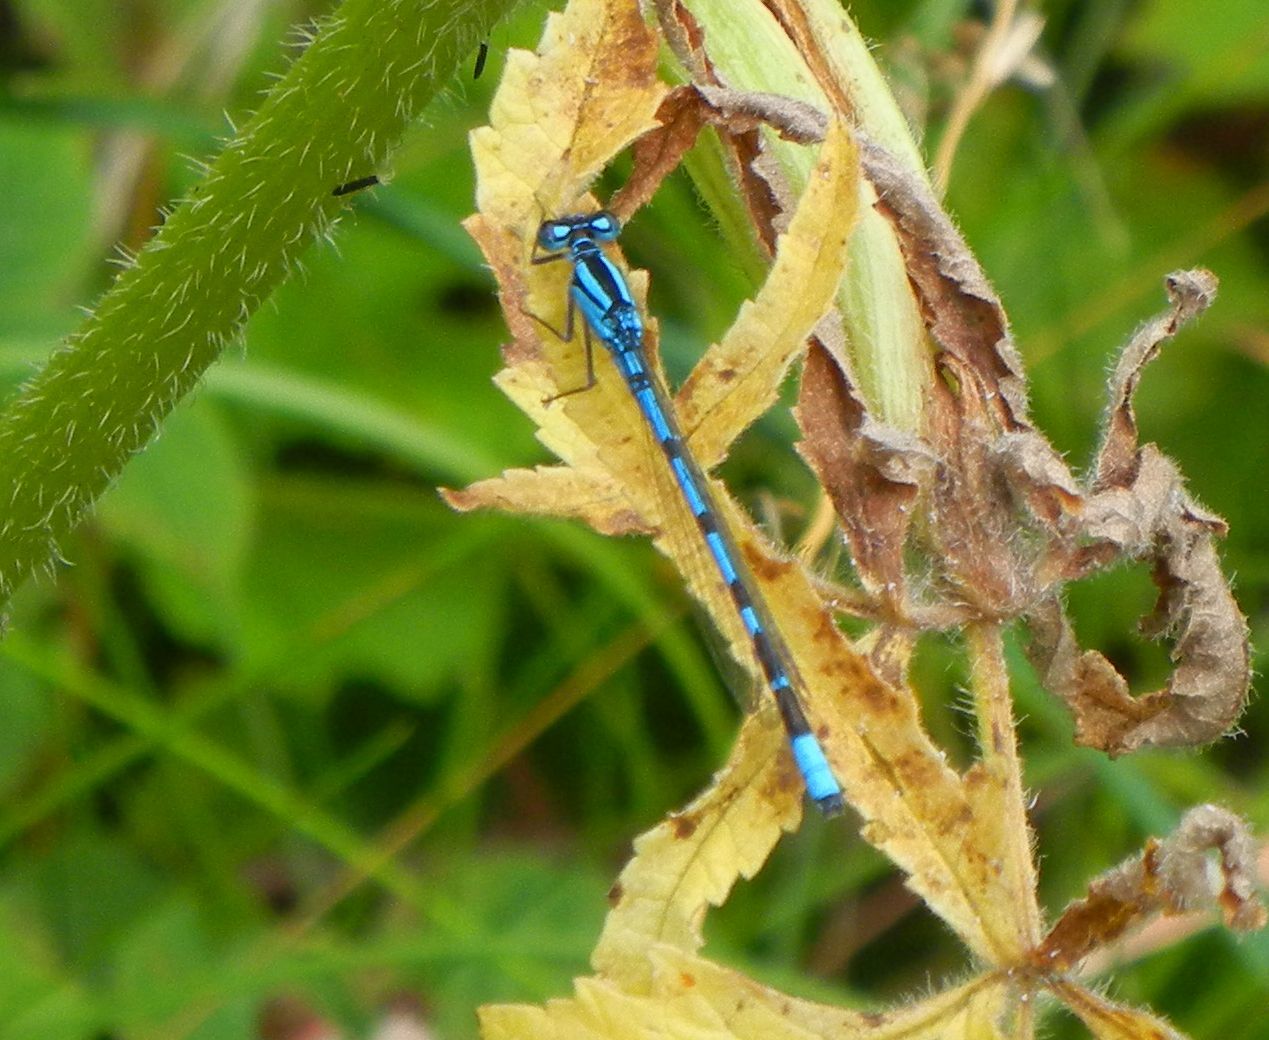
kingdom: Animalia
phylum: Arthropoda
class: Insecta
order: Odonata
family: Coenagrionidae
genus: Enallagma
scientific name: Enallagma cyathigerum
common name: Common blue damselfly
